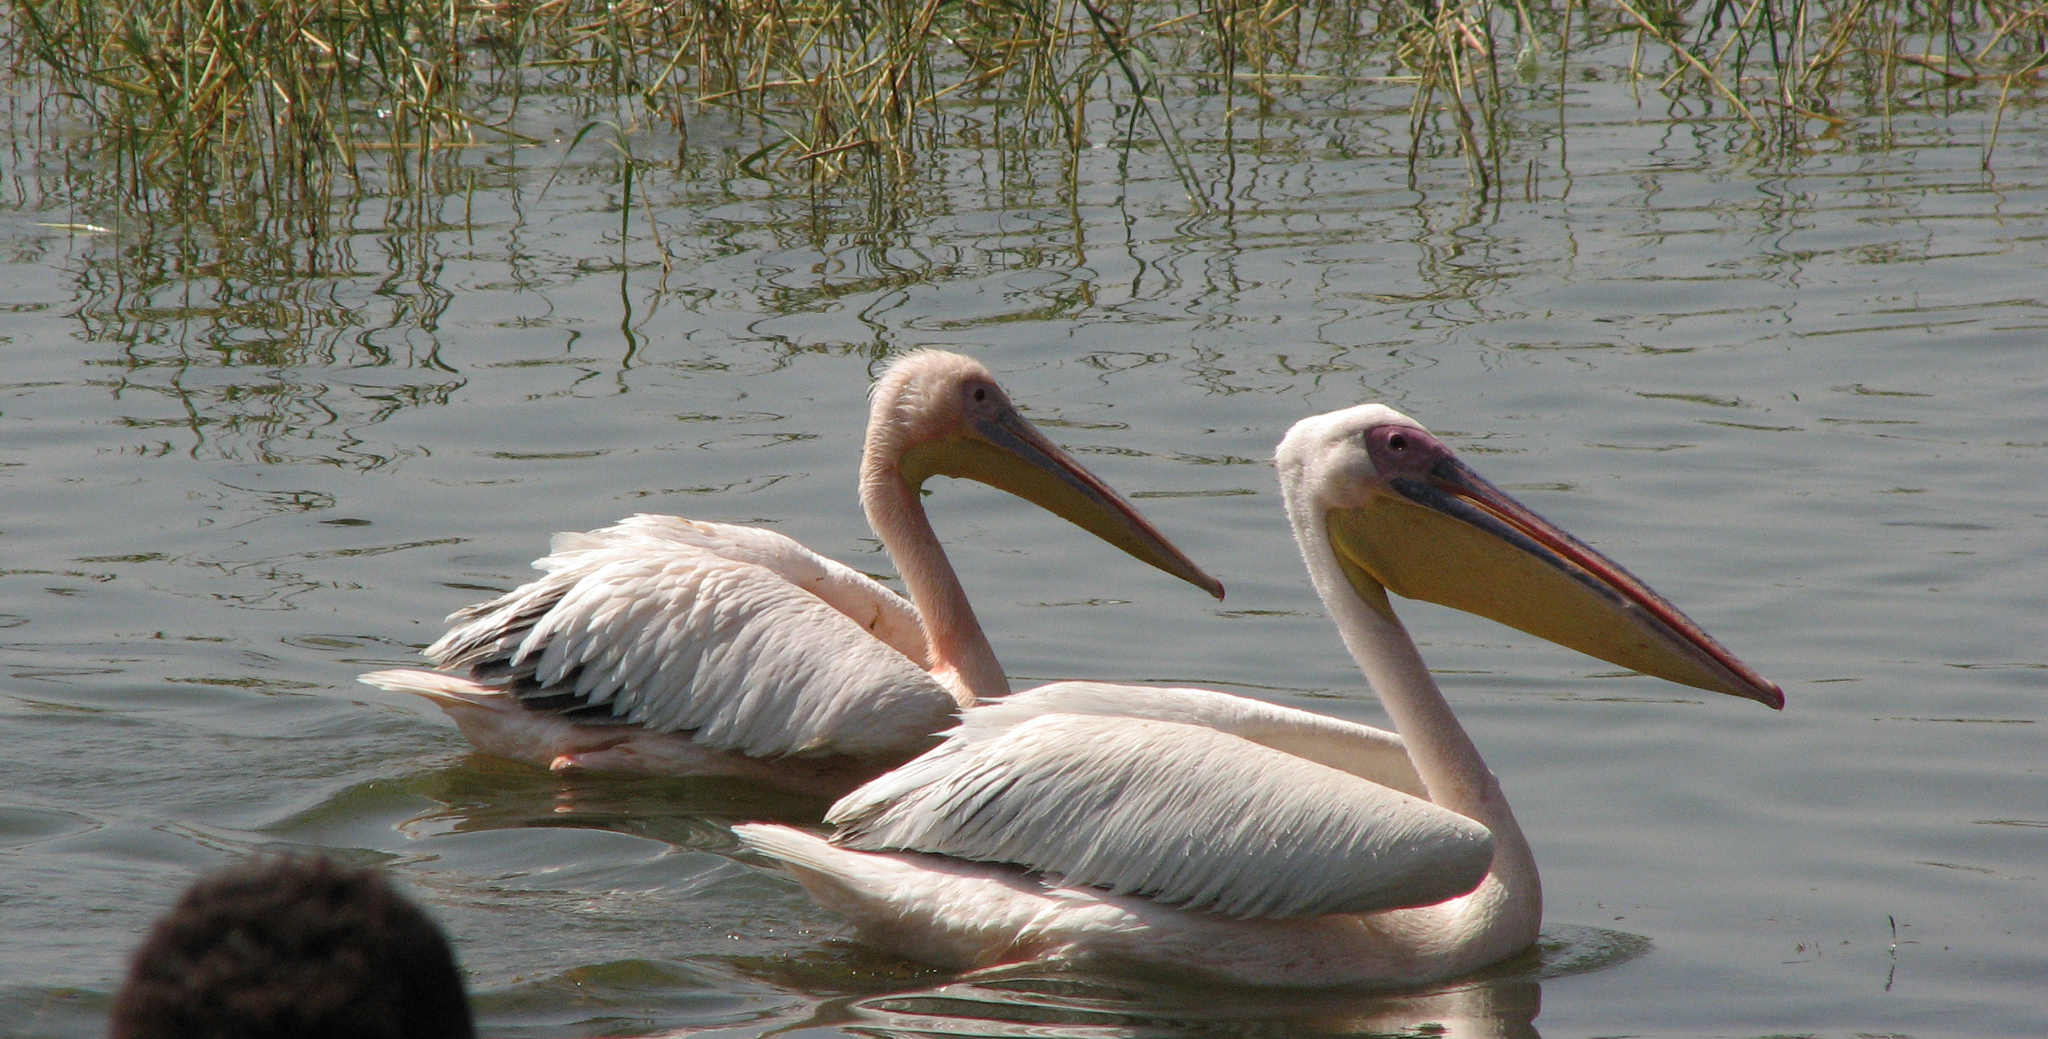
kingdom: Animalia
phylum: Chordata
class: Aves
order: Pelecaniformes
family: Pelecanidae
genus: Pelecanus
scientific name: Pelecanus onocrotalus
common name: Great white pelican
